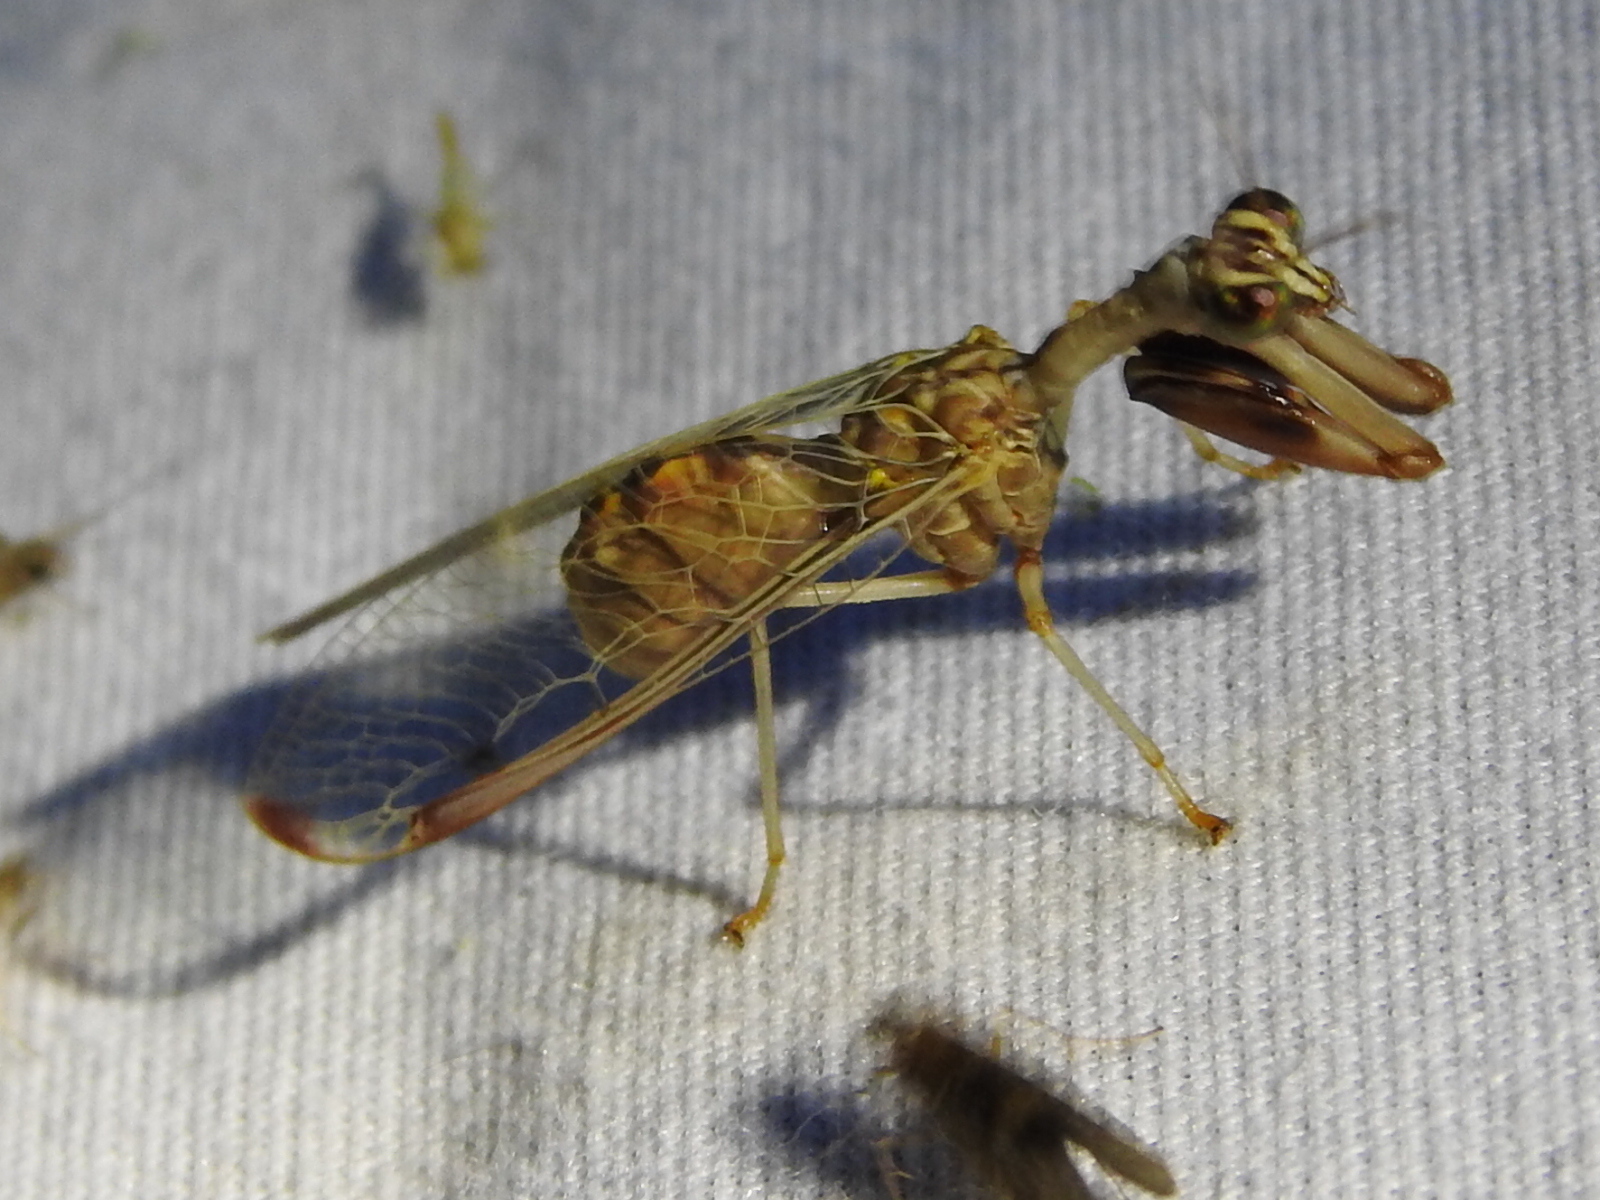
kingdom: Animalia
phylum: Arthropoda
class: Insecta
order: Neuroptera
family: Mantispidae
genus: Dicromantispa
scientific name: Dicromantispa interrupta
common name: Four-spotted mantidfly
